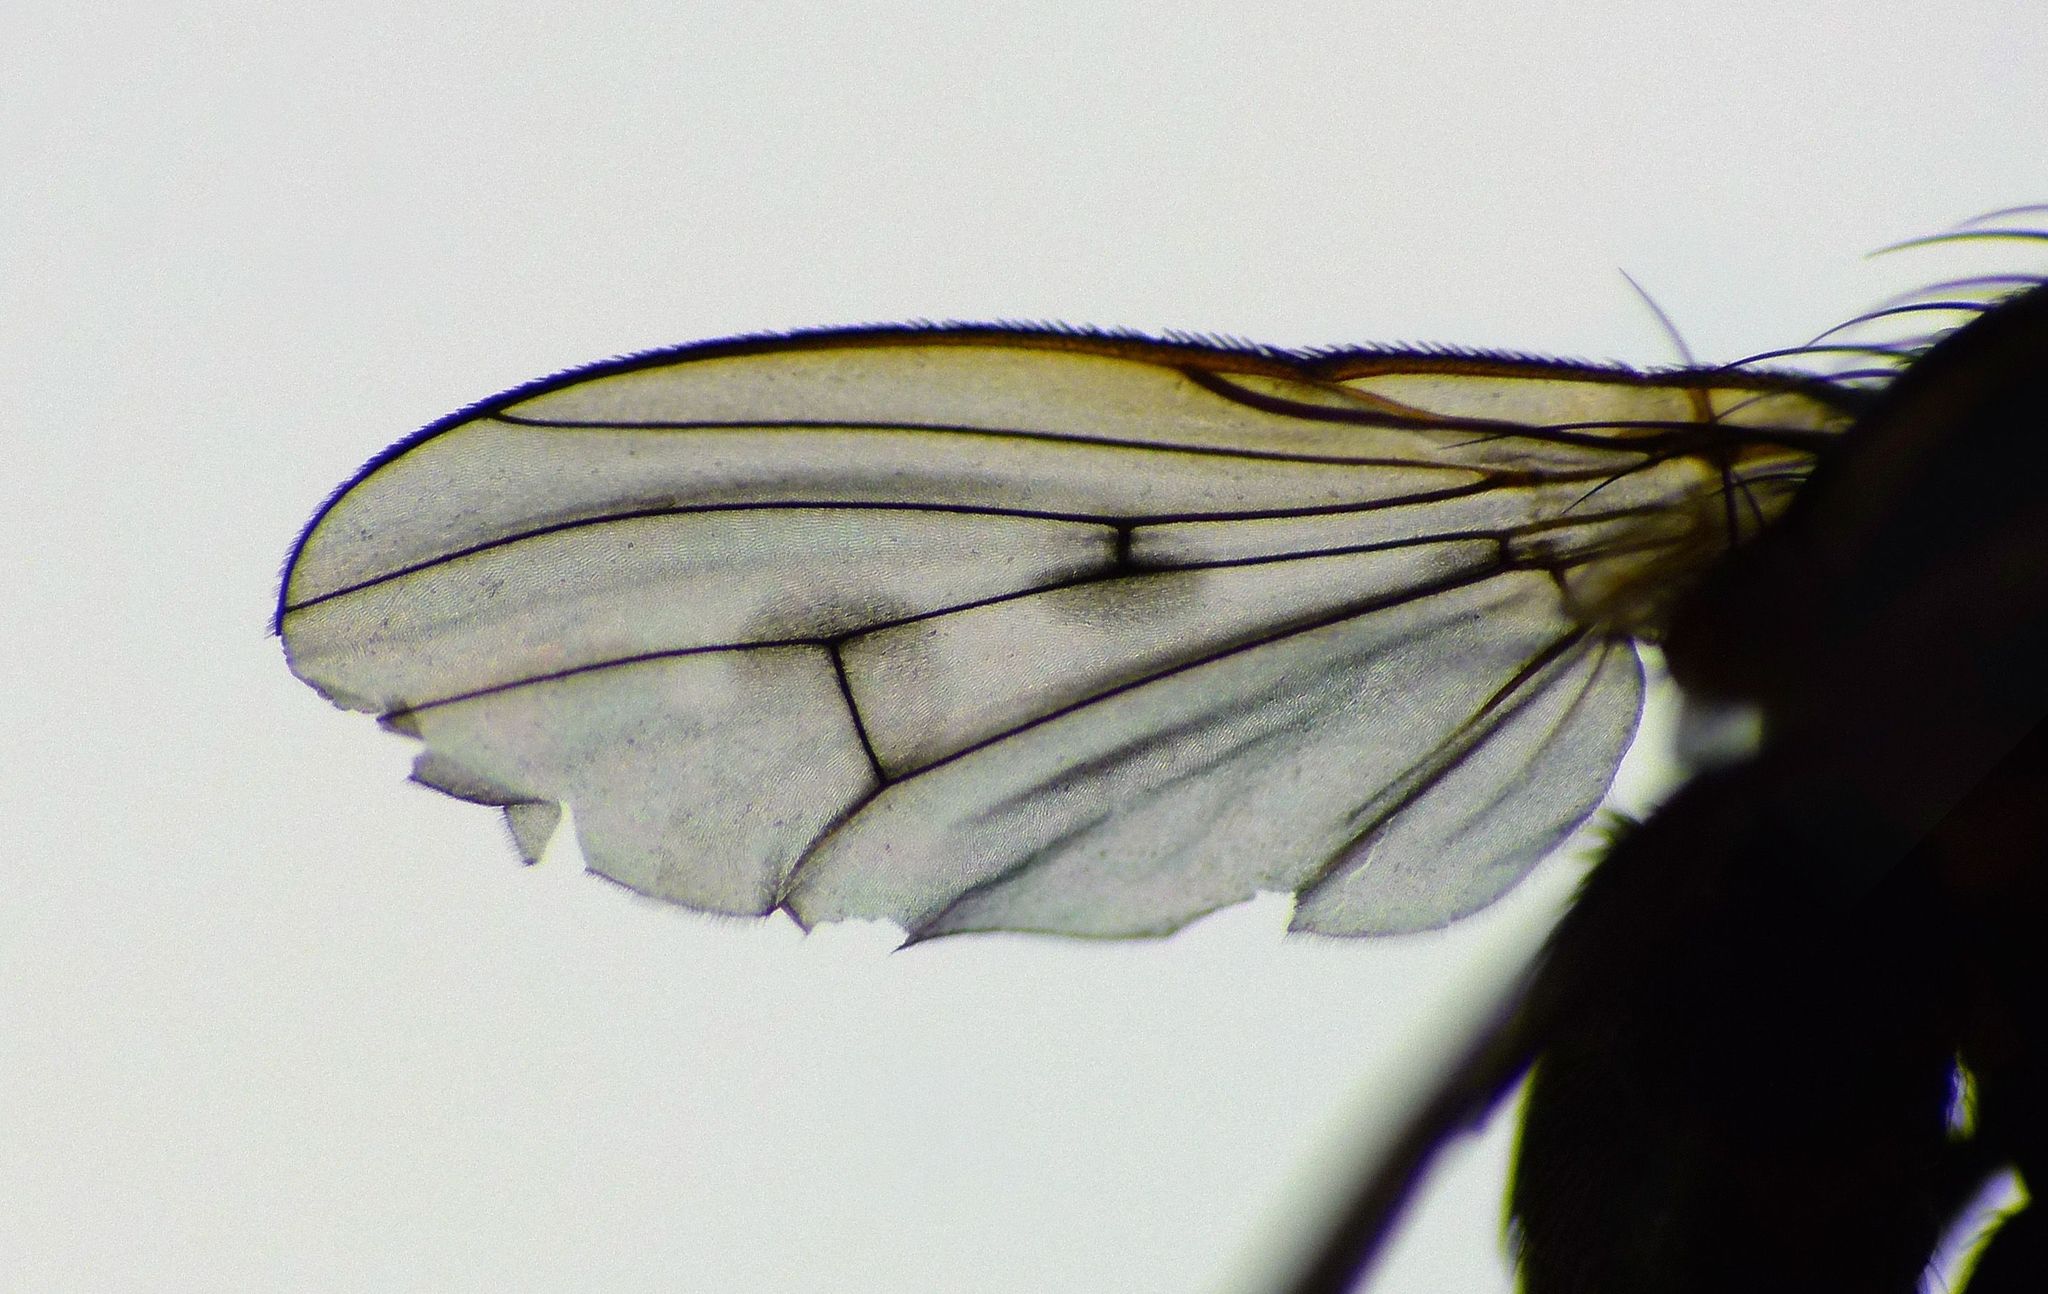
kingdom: Animalia
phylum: Arthropoda
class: Insecta
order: Diptera
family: Muscidae
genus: Limnohelina
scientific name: Limnohelina bivittata
